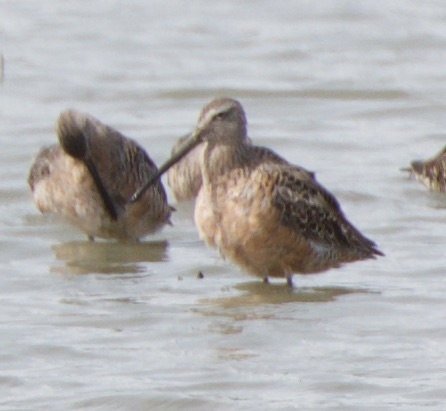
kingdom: Animalia
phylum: Chordata
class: Aves
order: Charadriiformes
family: Scolopacidae
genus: Limnodromus
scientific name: Limnodromus scolopaceus
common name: Long-billed dowitcher
